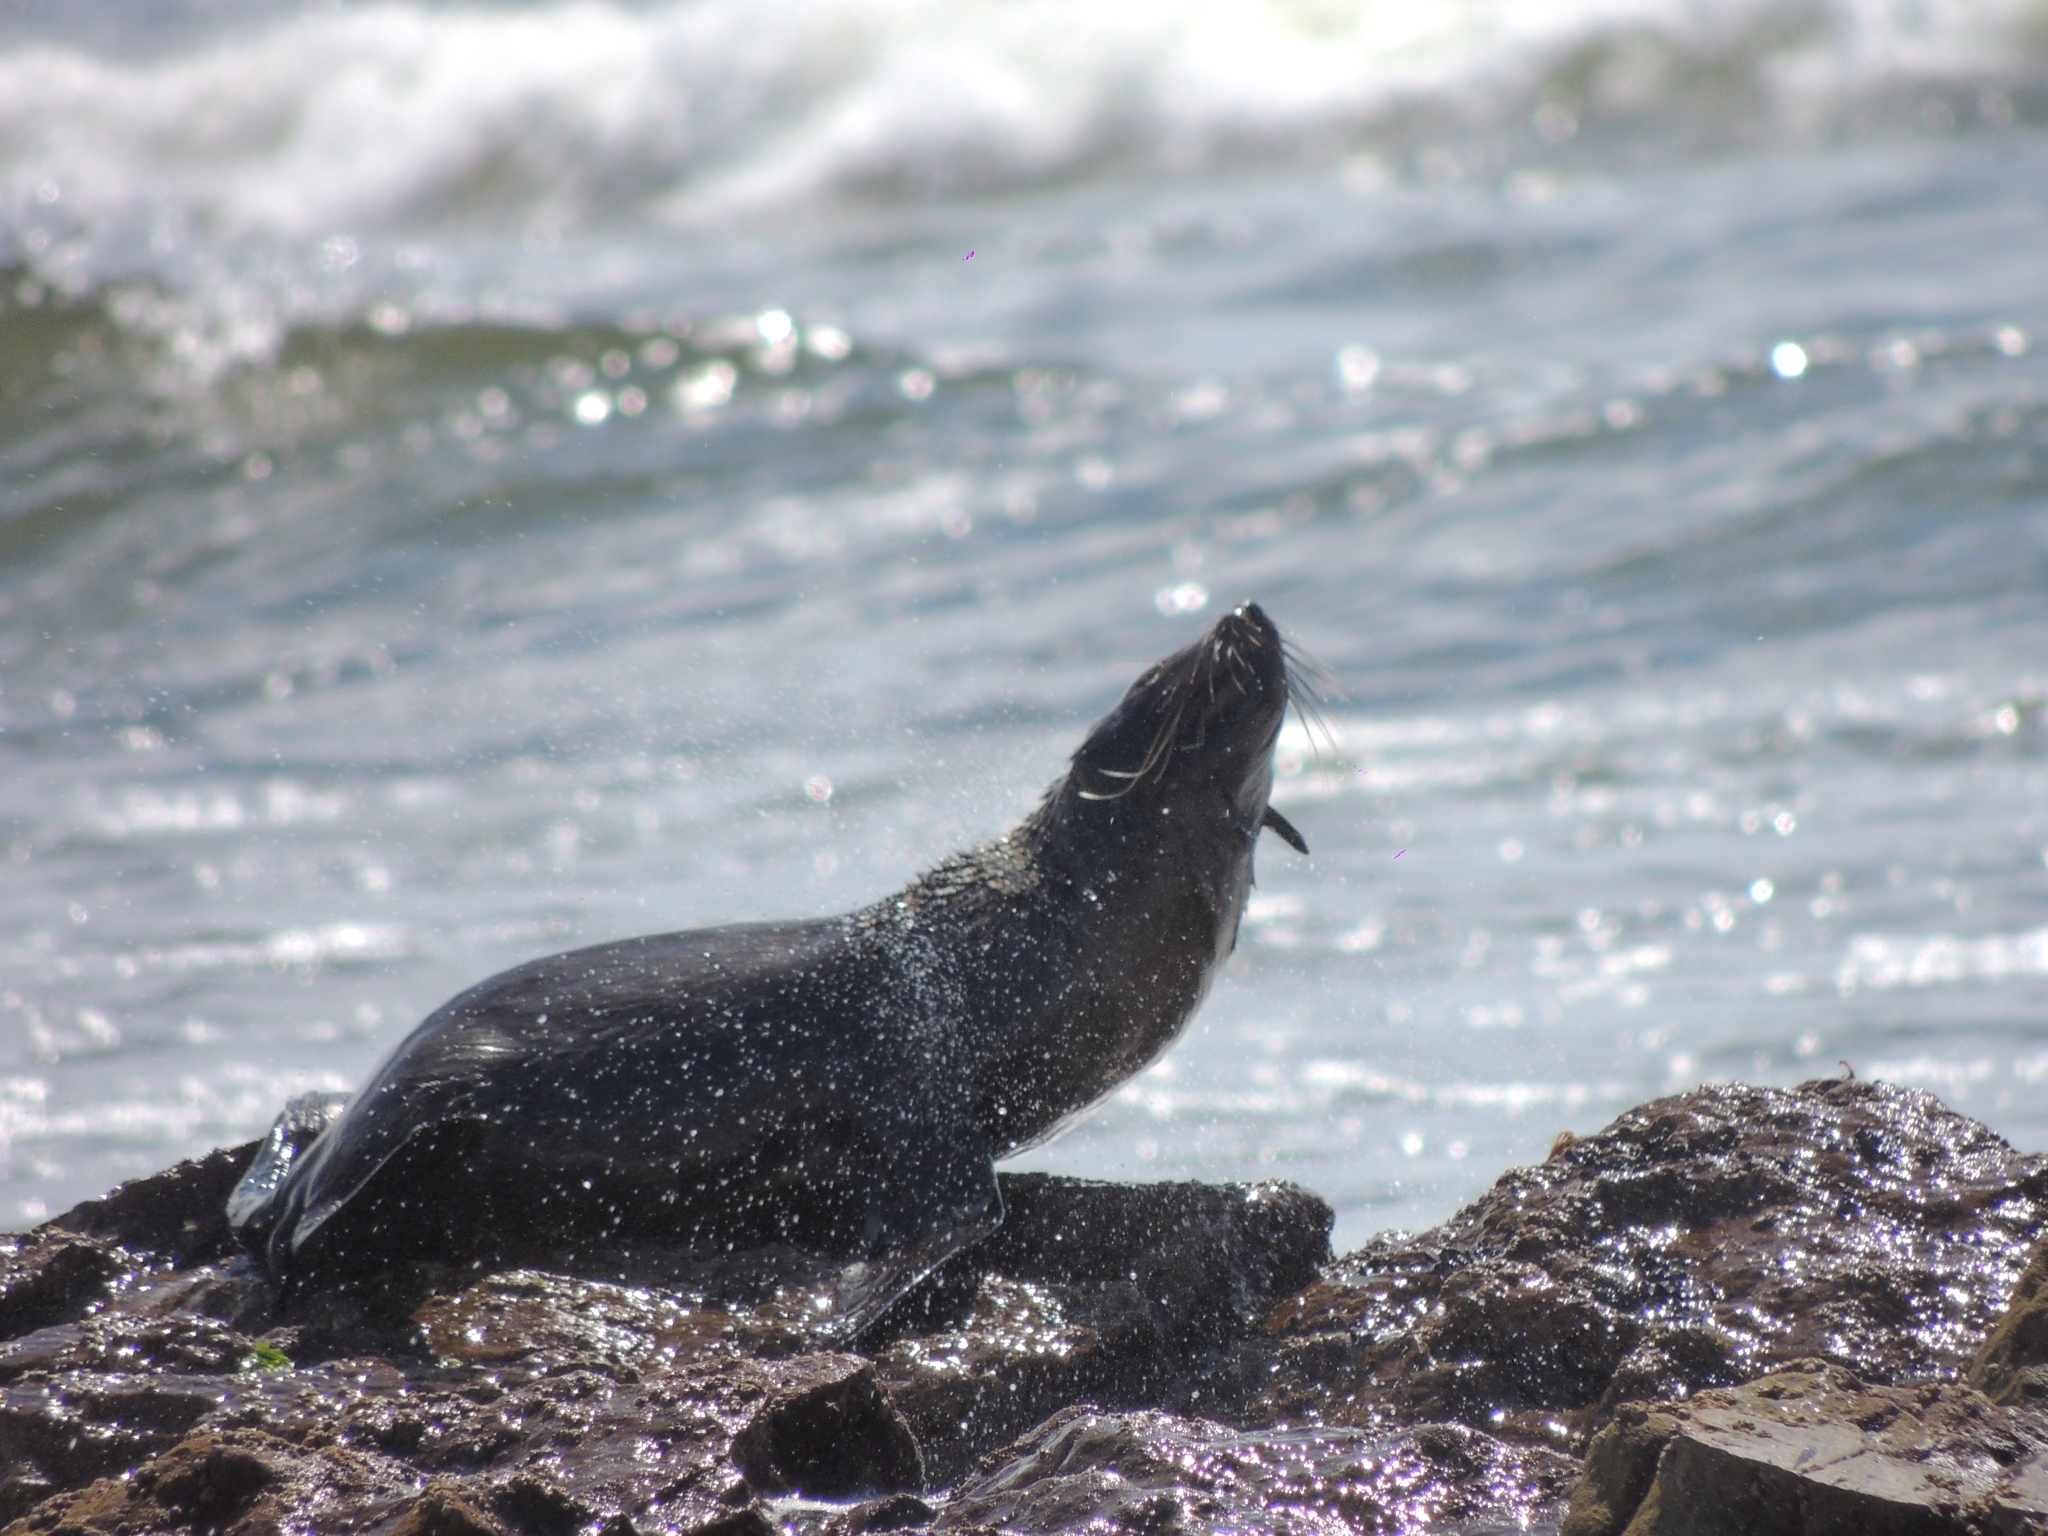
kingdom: Animalia
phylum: Chordata
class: Mammalia
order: Carnivora
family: Otariidae
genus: Arctocephalus
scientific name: Arctocephalus australis
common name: South american fur seal
